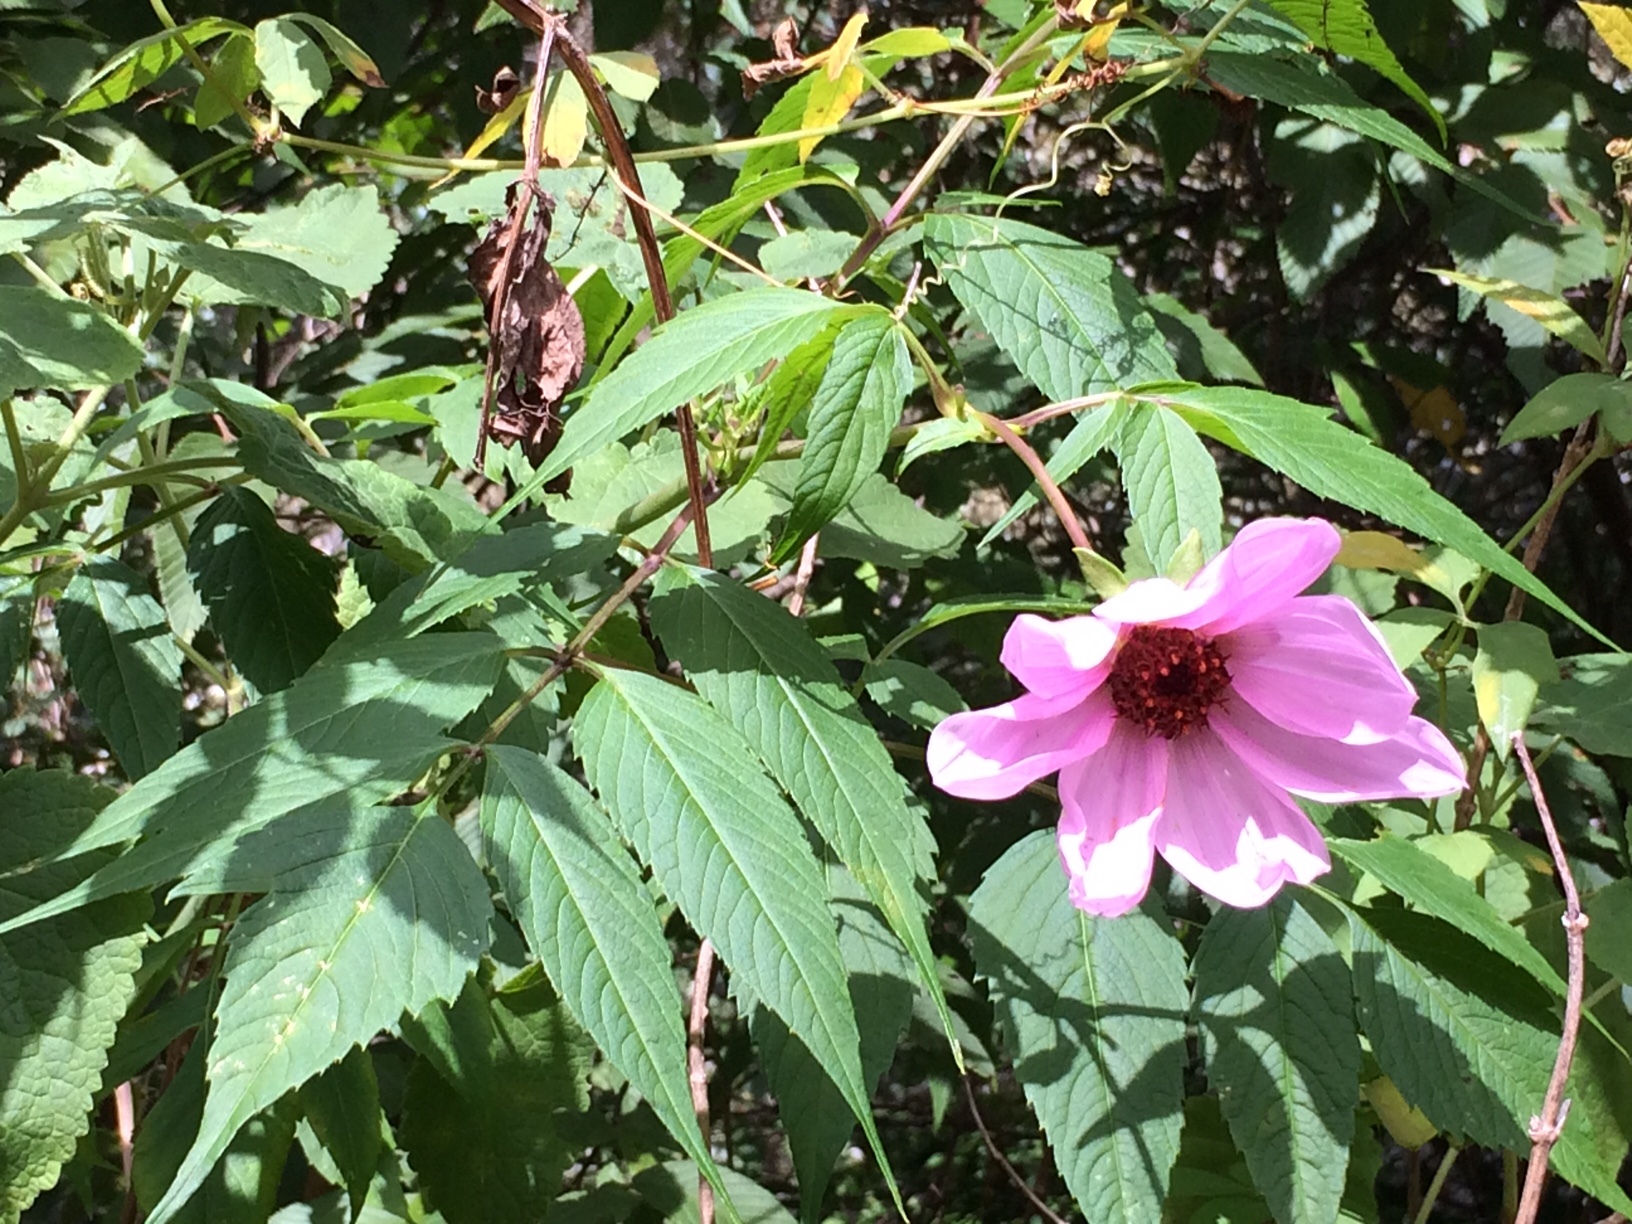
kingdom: Plantae
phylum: Tracheophyta
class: Magnoliopsida
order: Asterales
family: Asteraceae
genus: Dahlia
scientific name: Dahlia imperialis
